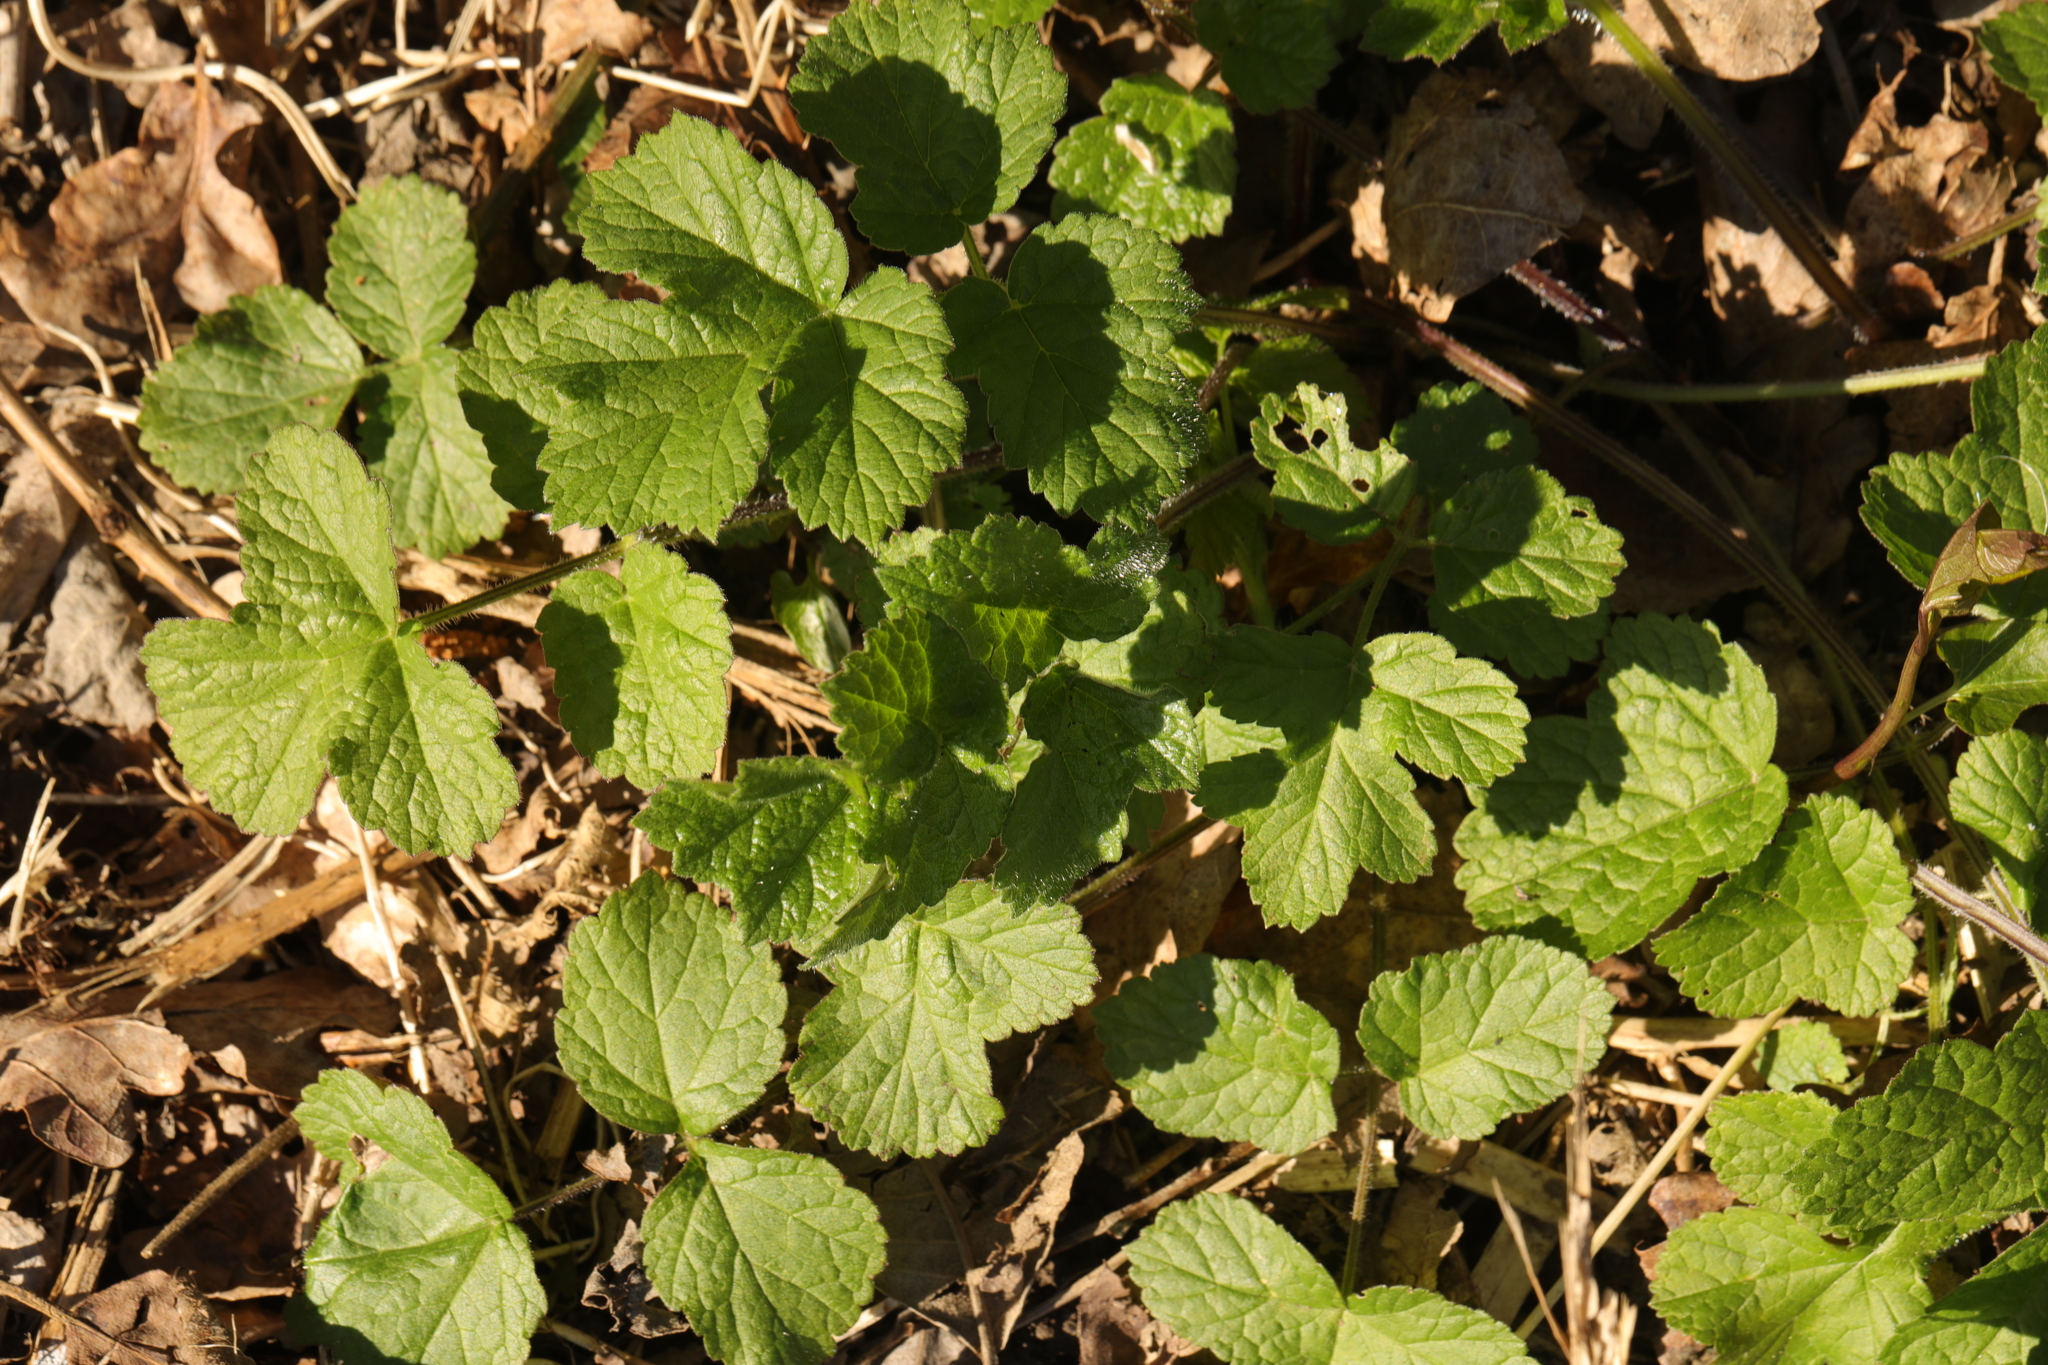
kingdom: Plantae
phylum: Tracheophyta
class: Magnoliopsida
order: Rosales
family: Rosaceae
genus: Geum
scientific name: Geum urbanum
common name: Wood avens
